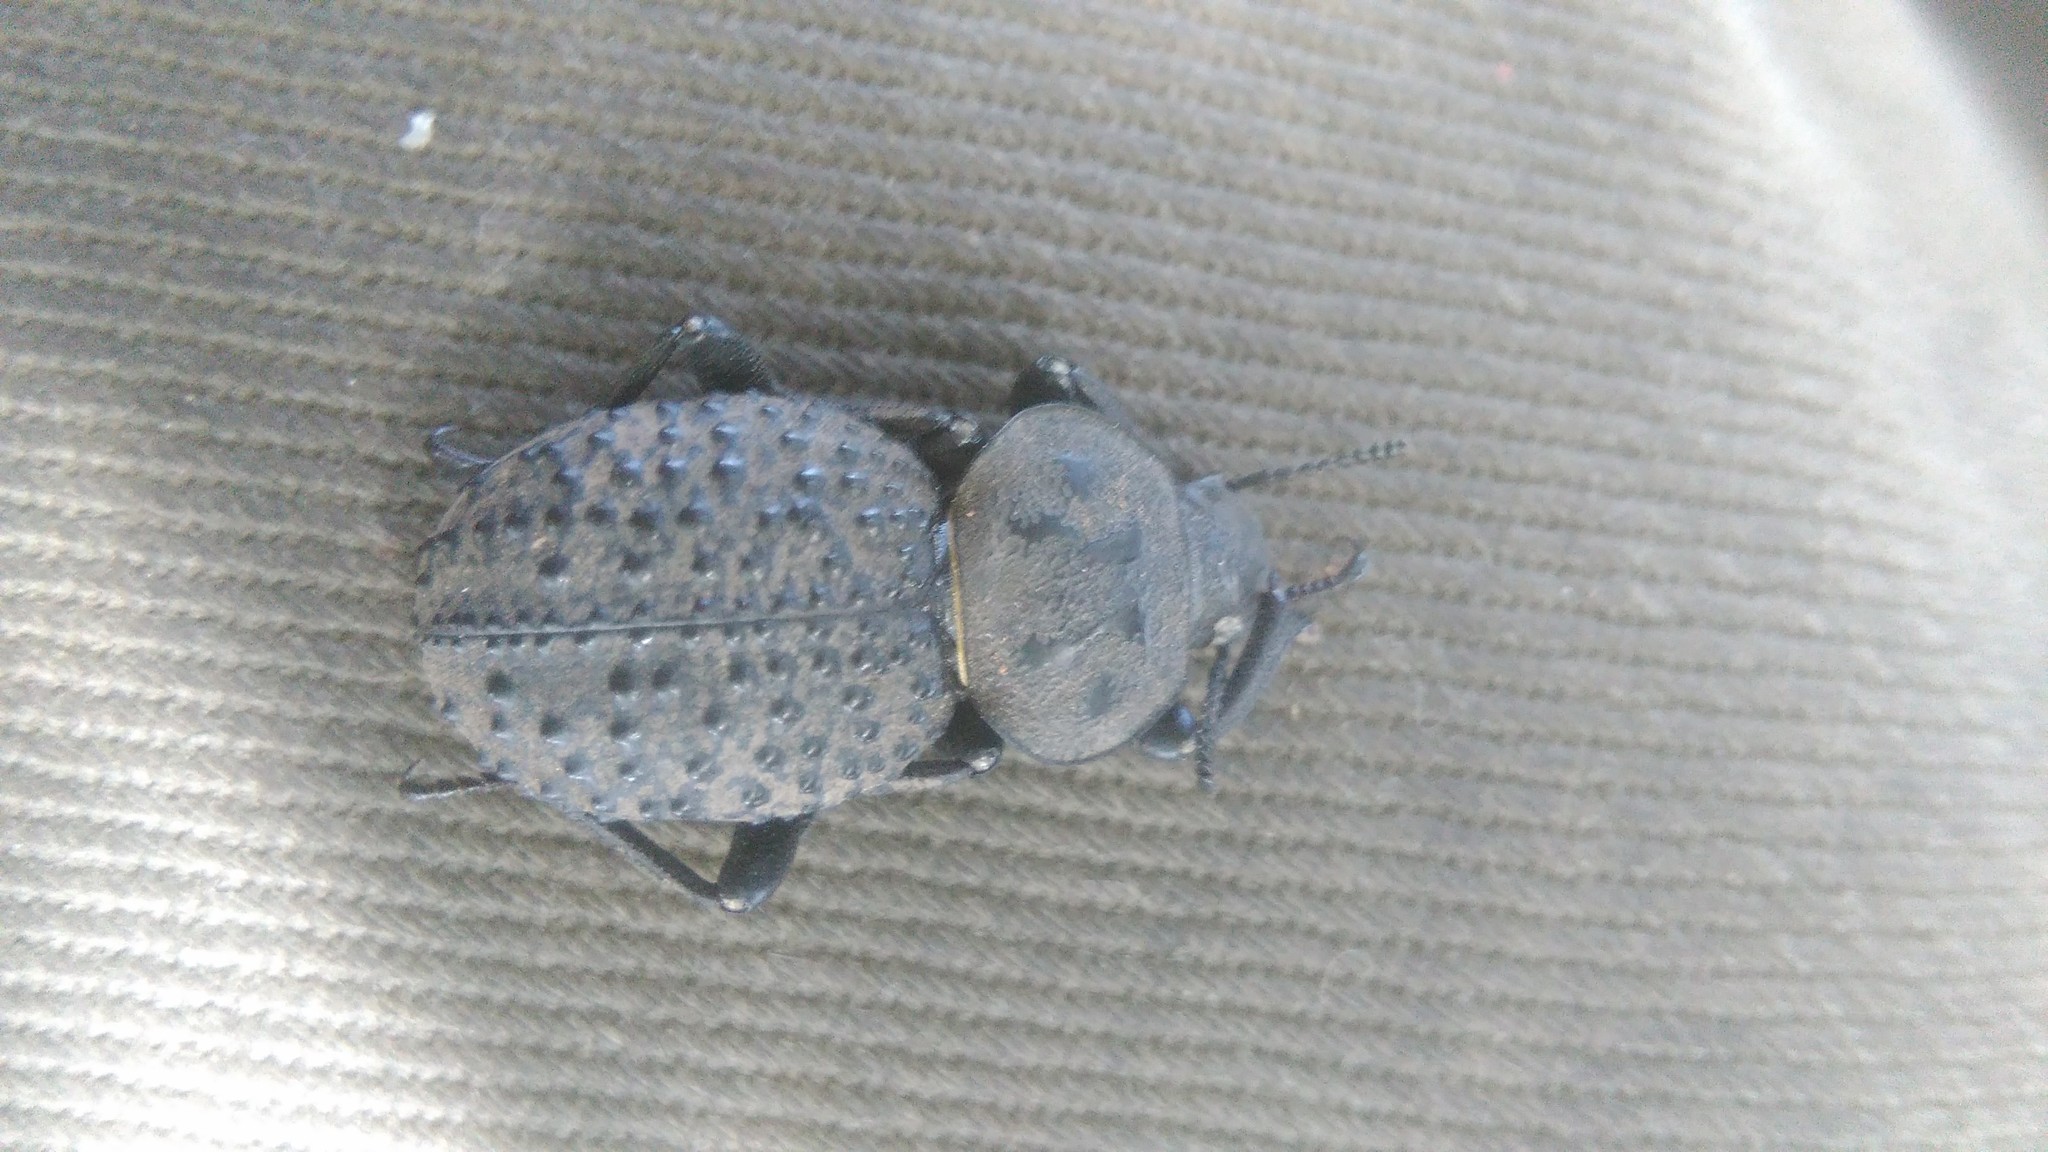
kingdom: Animalia
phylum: Arthropoda
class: Insecta
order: Coleoptera
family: Tenebrionidae
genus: Scotobius
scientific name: Scotobius pilularius
